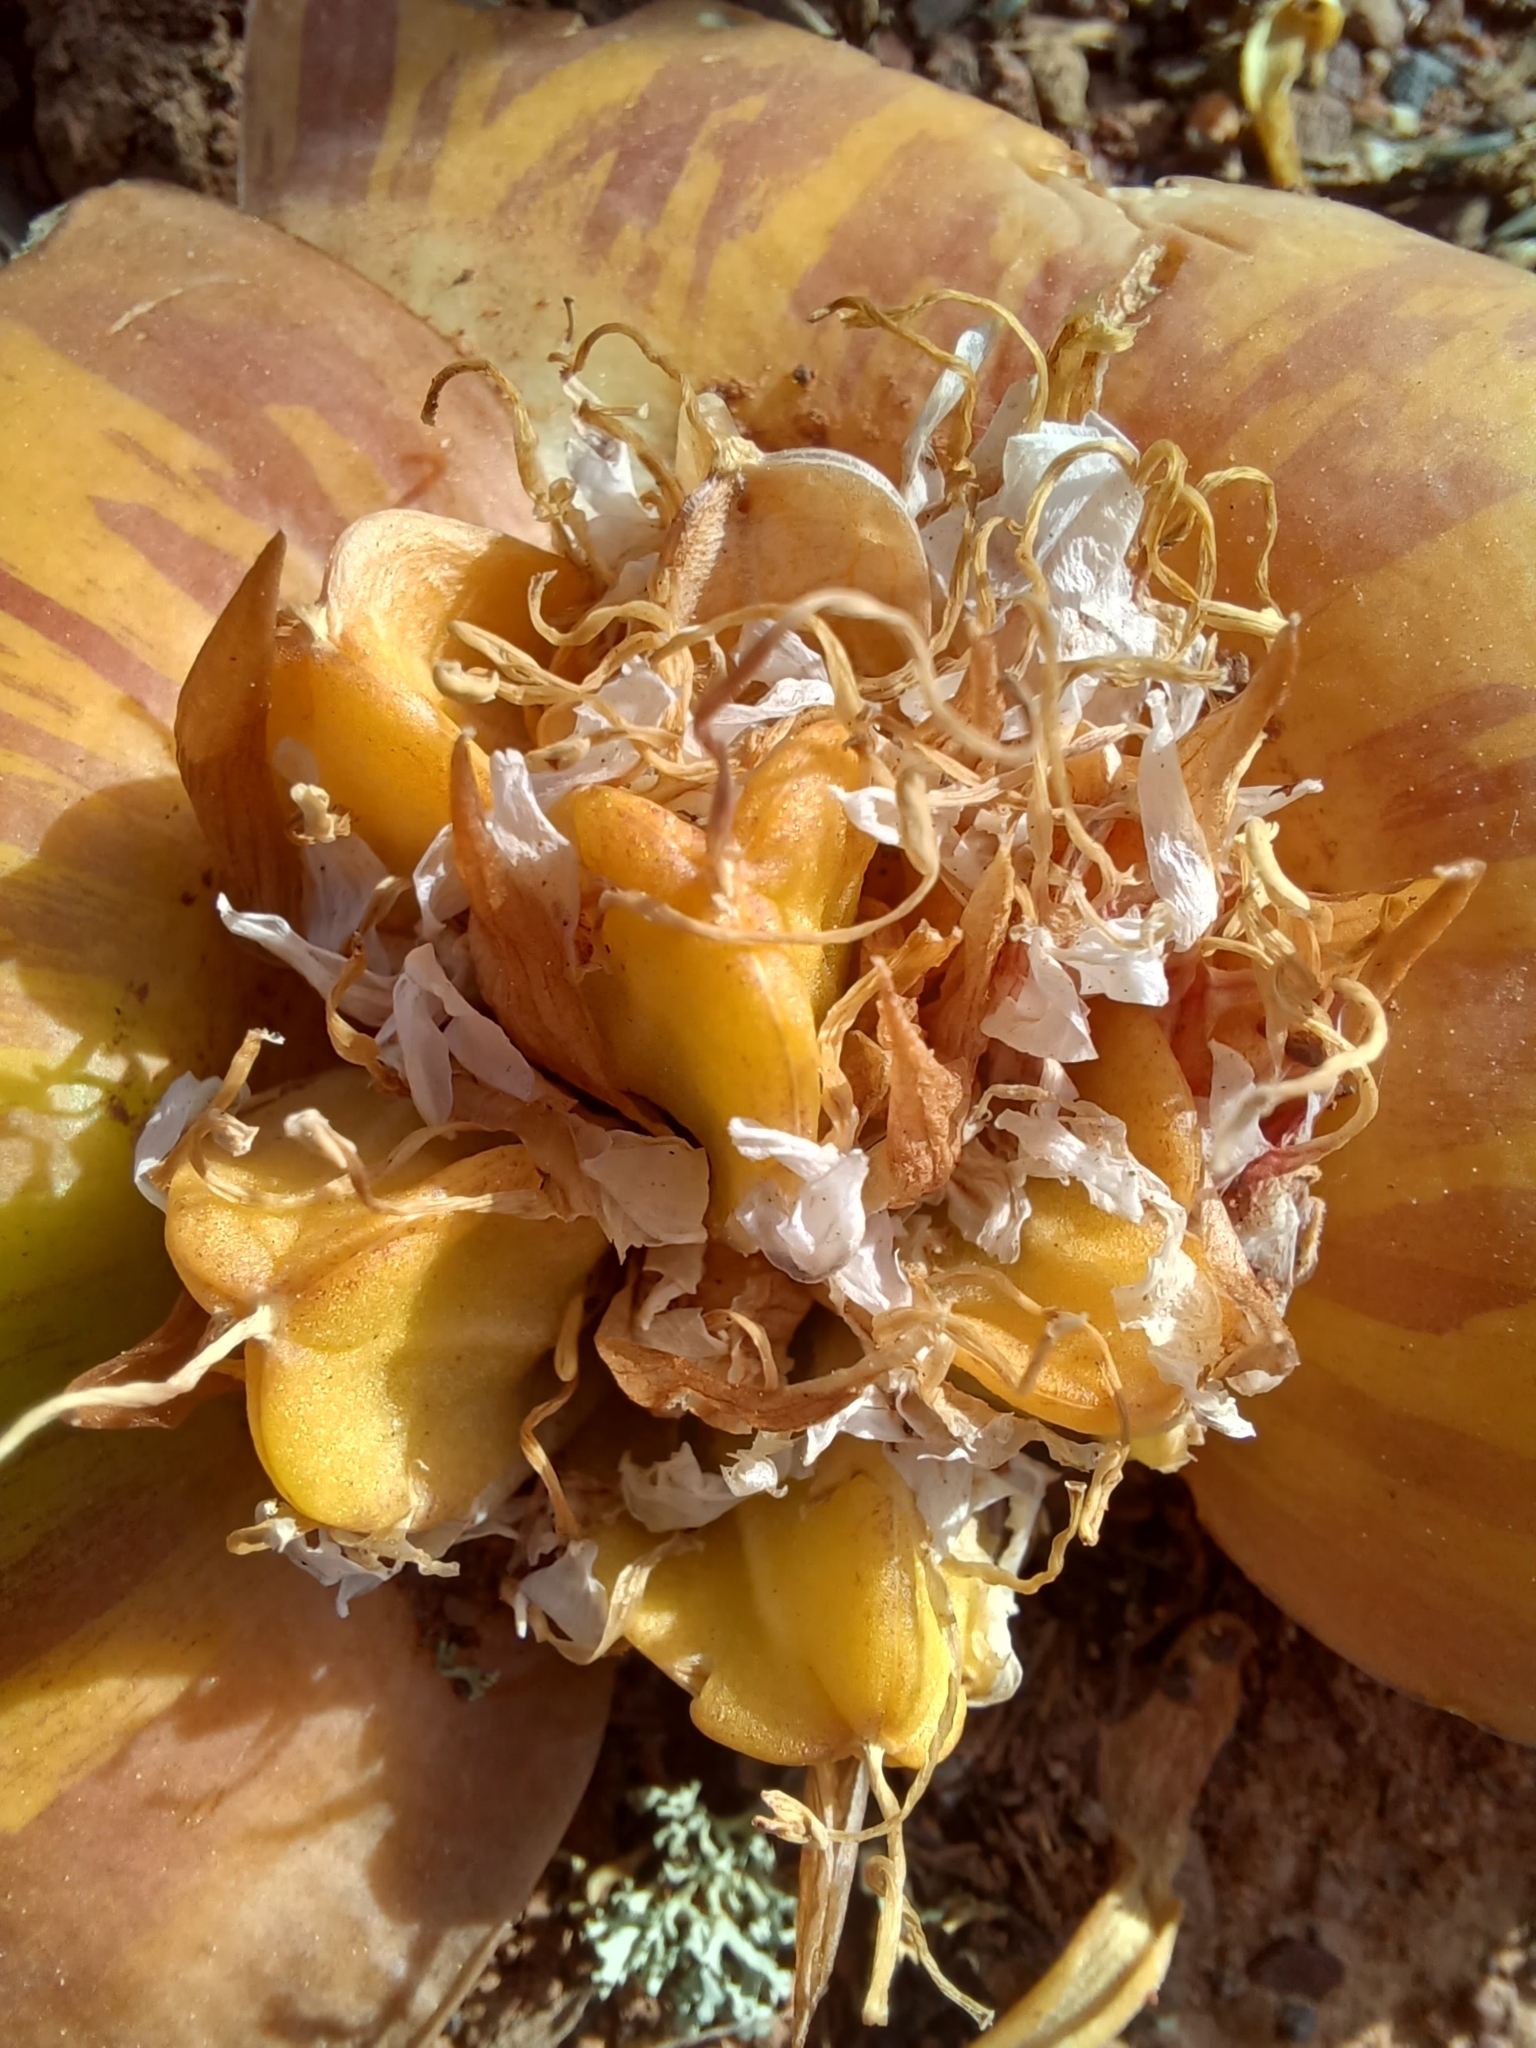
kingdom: Plantae
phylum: Tracheophyta
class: Liliopsida
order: Asparagales
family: Asparagaceae
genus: Massonia
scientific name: Massonia depressa
